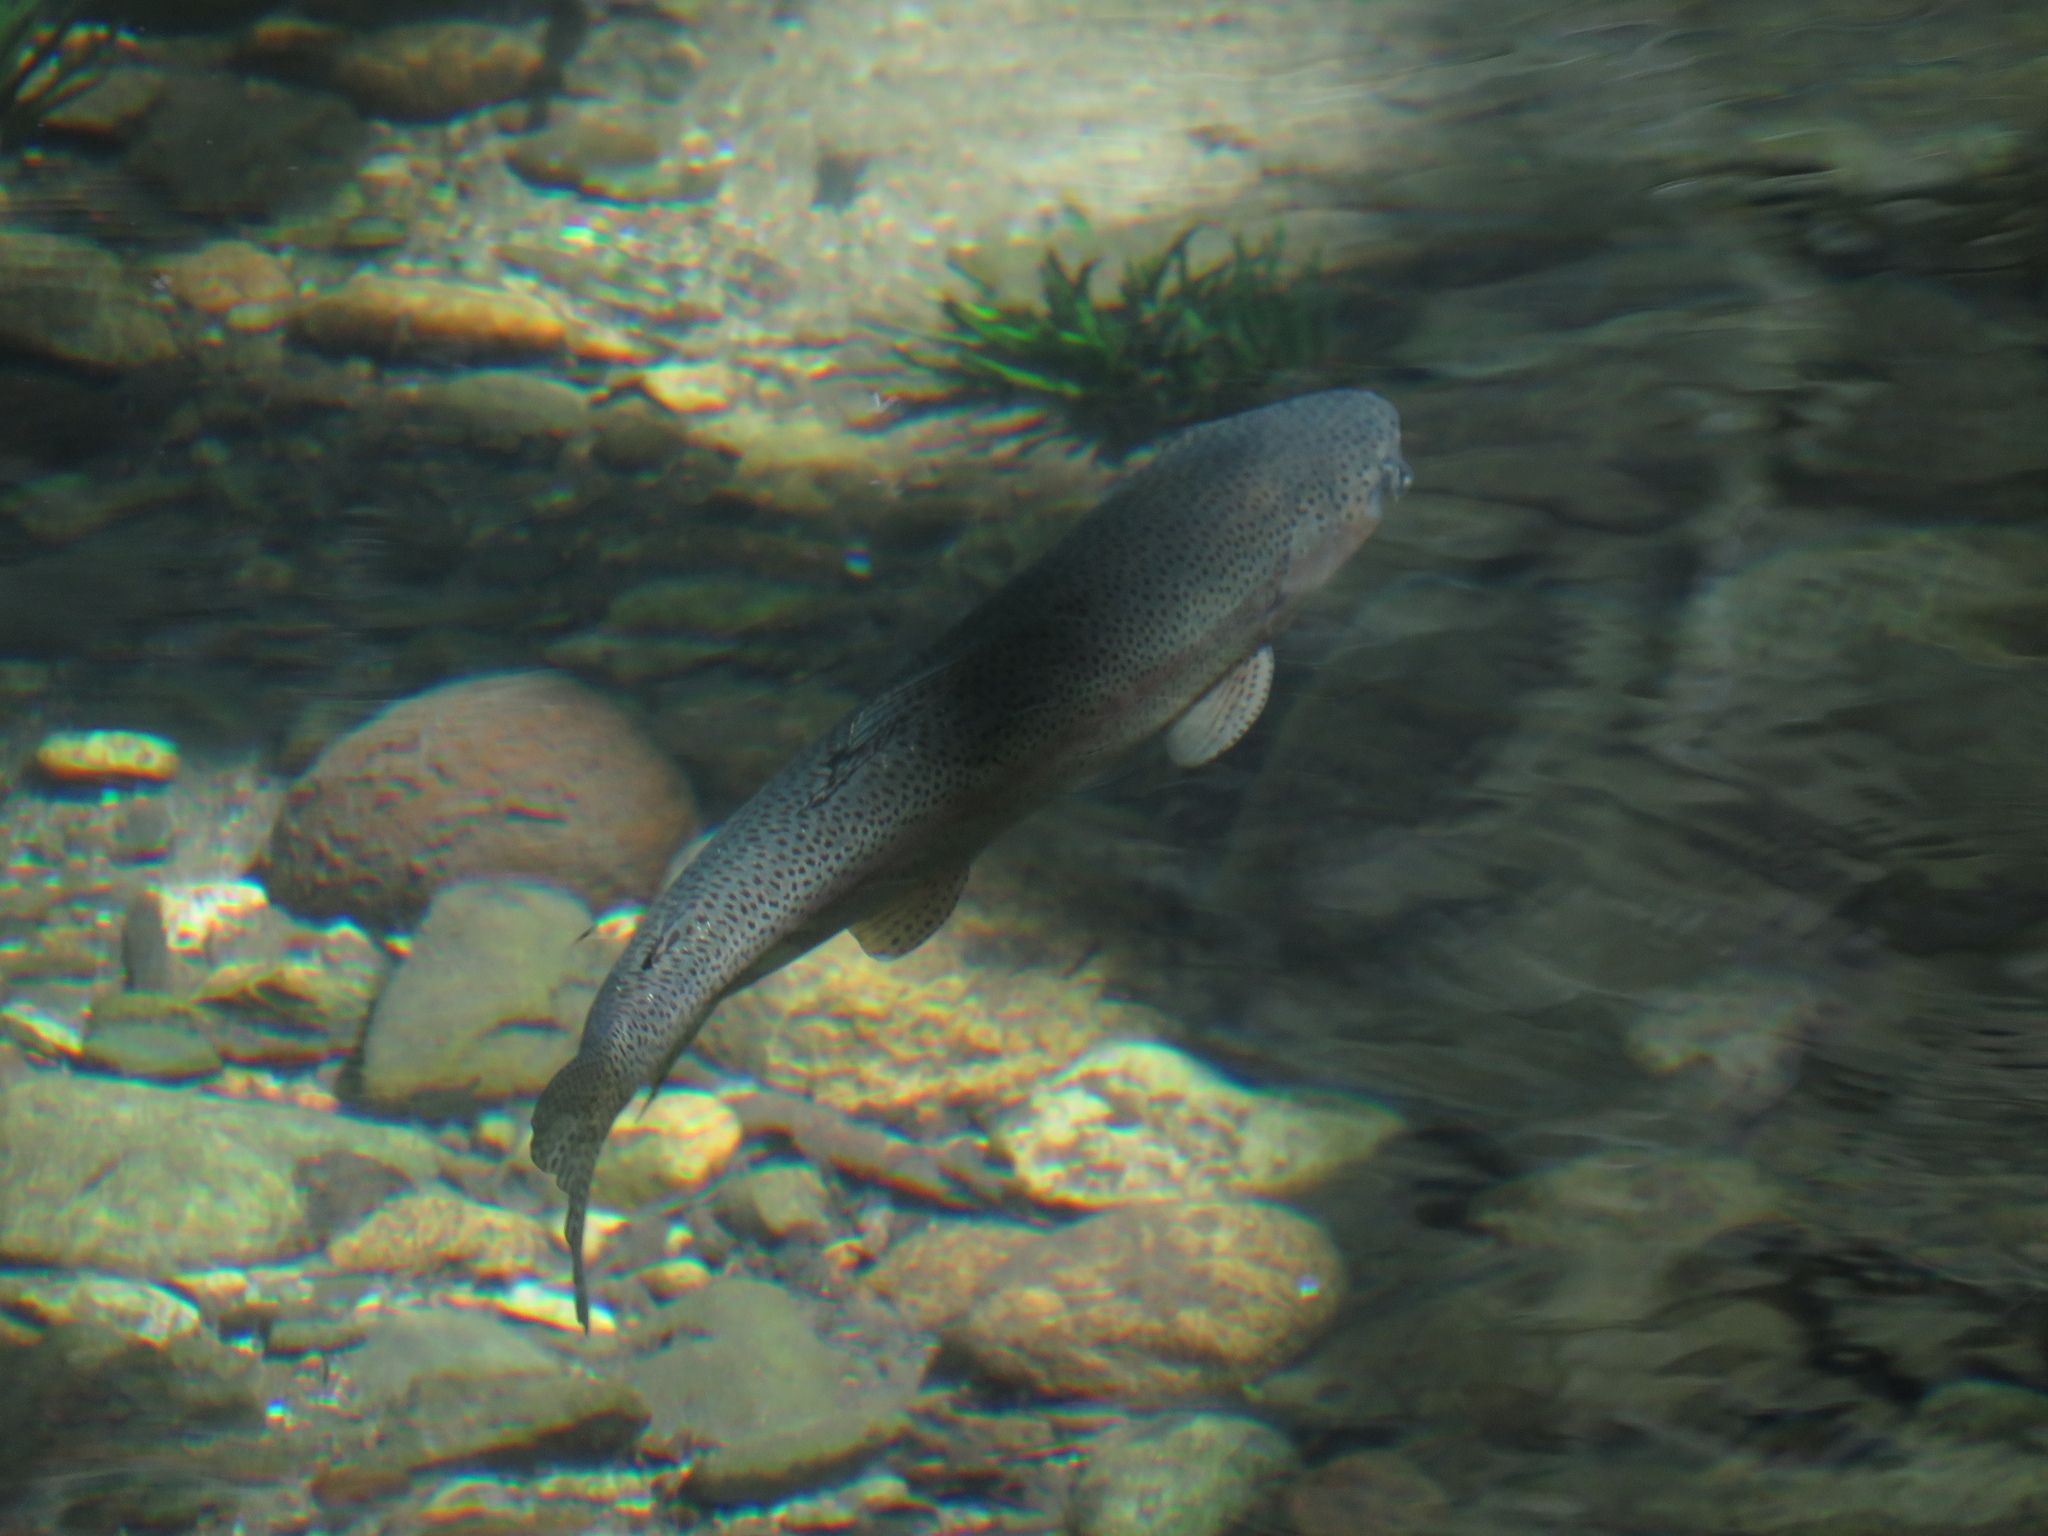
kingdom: Animalia
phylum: Chordata
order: Salmoniformes
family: Salmonidae
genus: Oncorhynchus
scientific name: Oncorhynchus mykiss
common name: Rainbow trout
